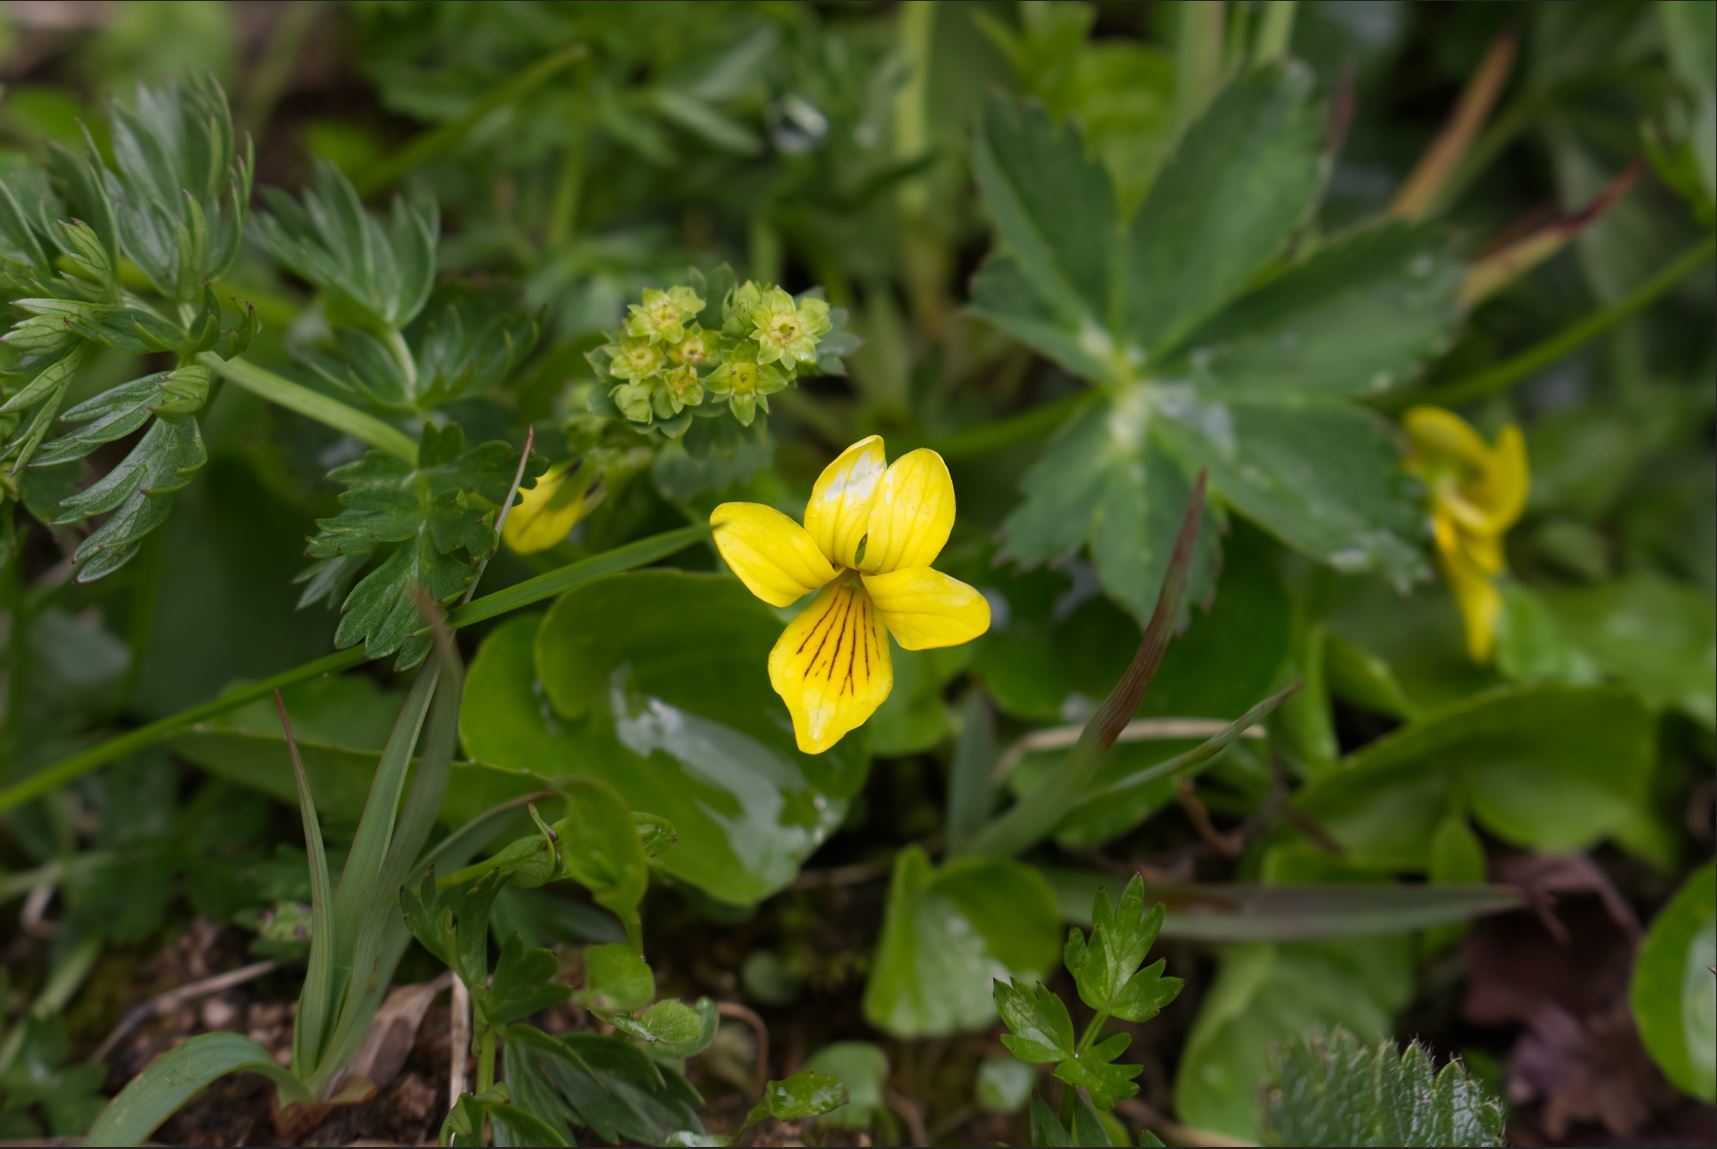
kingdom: Plantae
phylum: Tracheophyta
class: Magnoliopsida
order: Malpighiales
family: Violaceae
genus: Viola
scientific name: Viola biflora
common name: Alpine yellow violet
